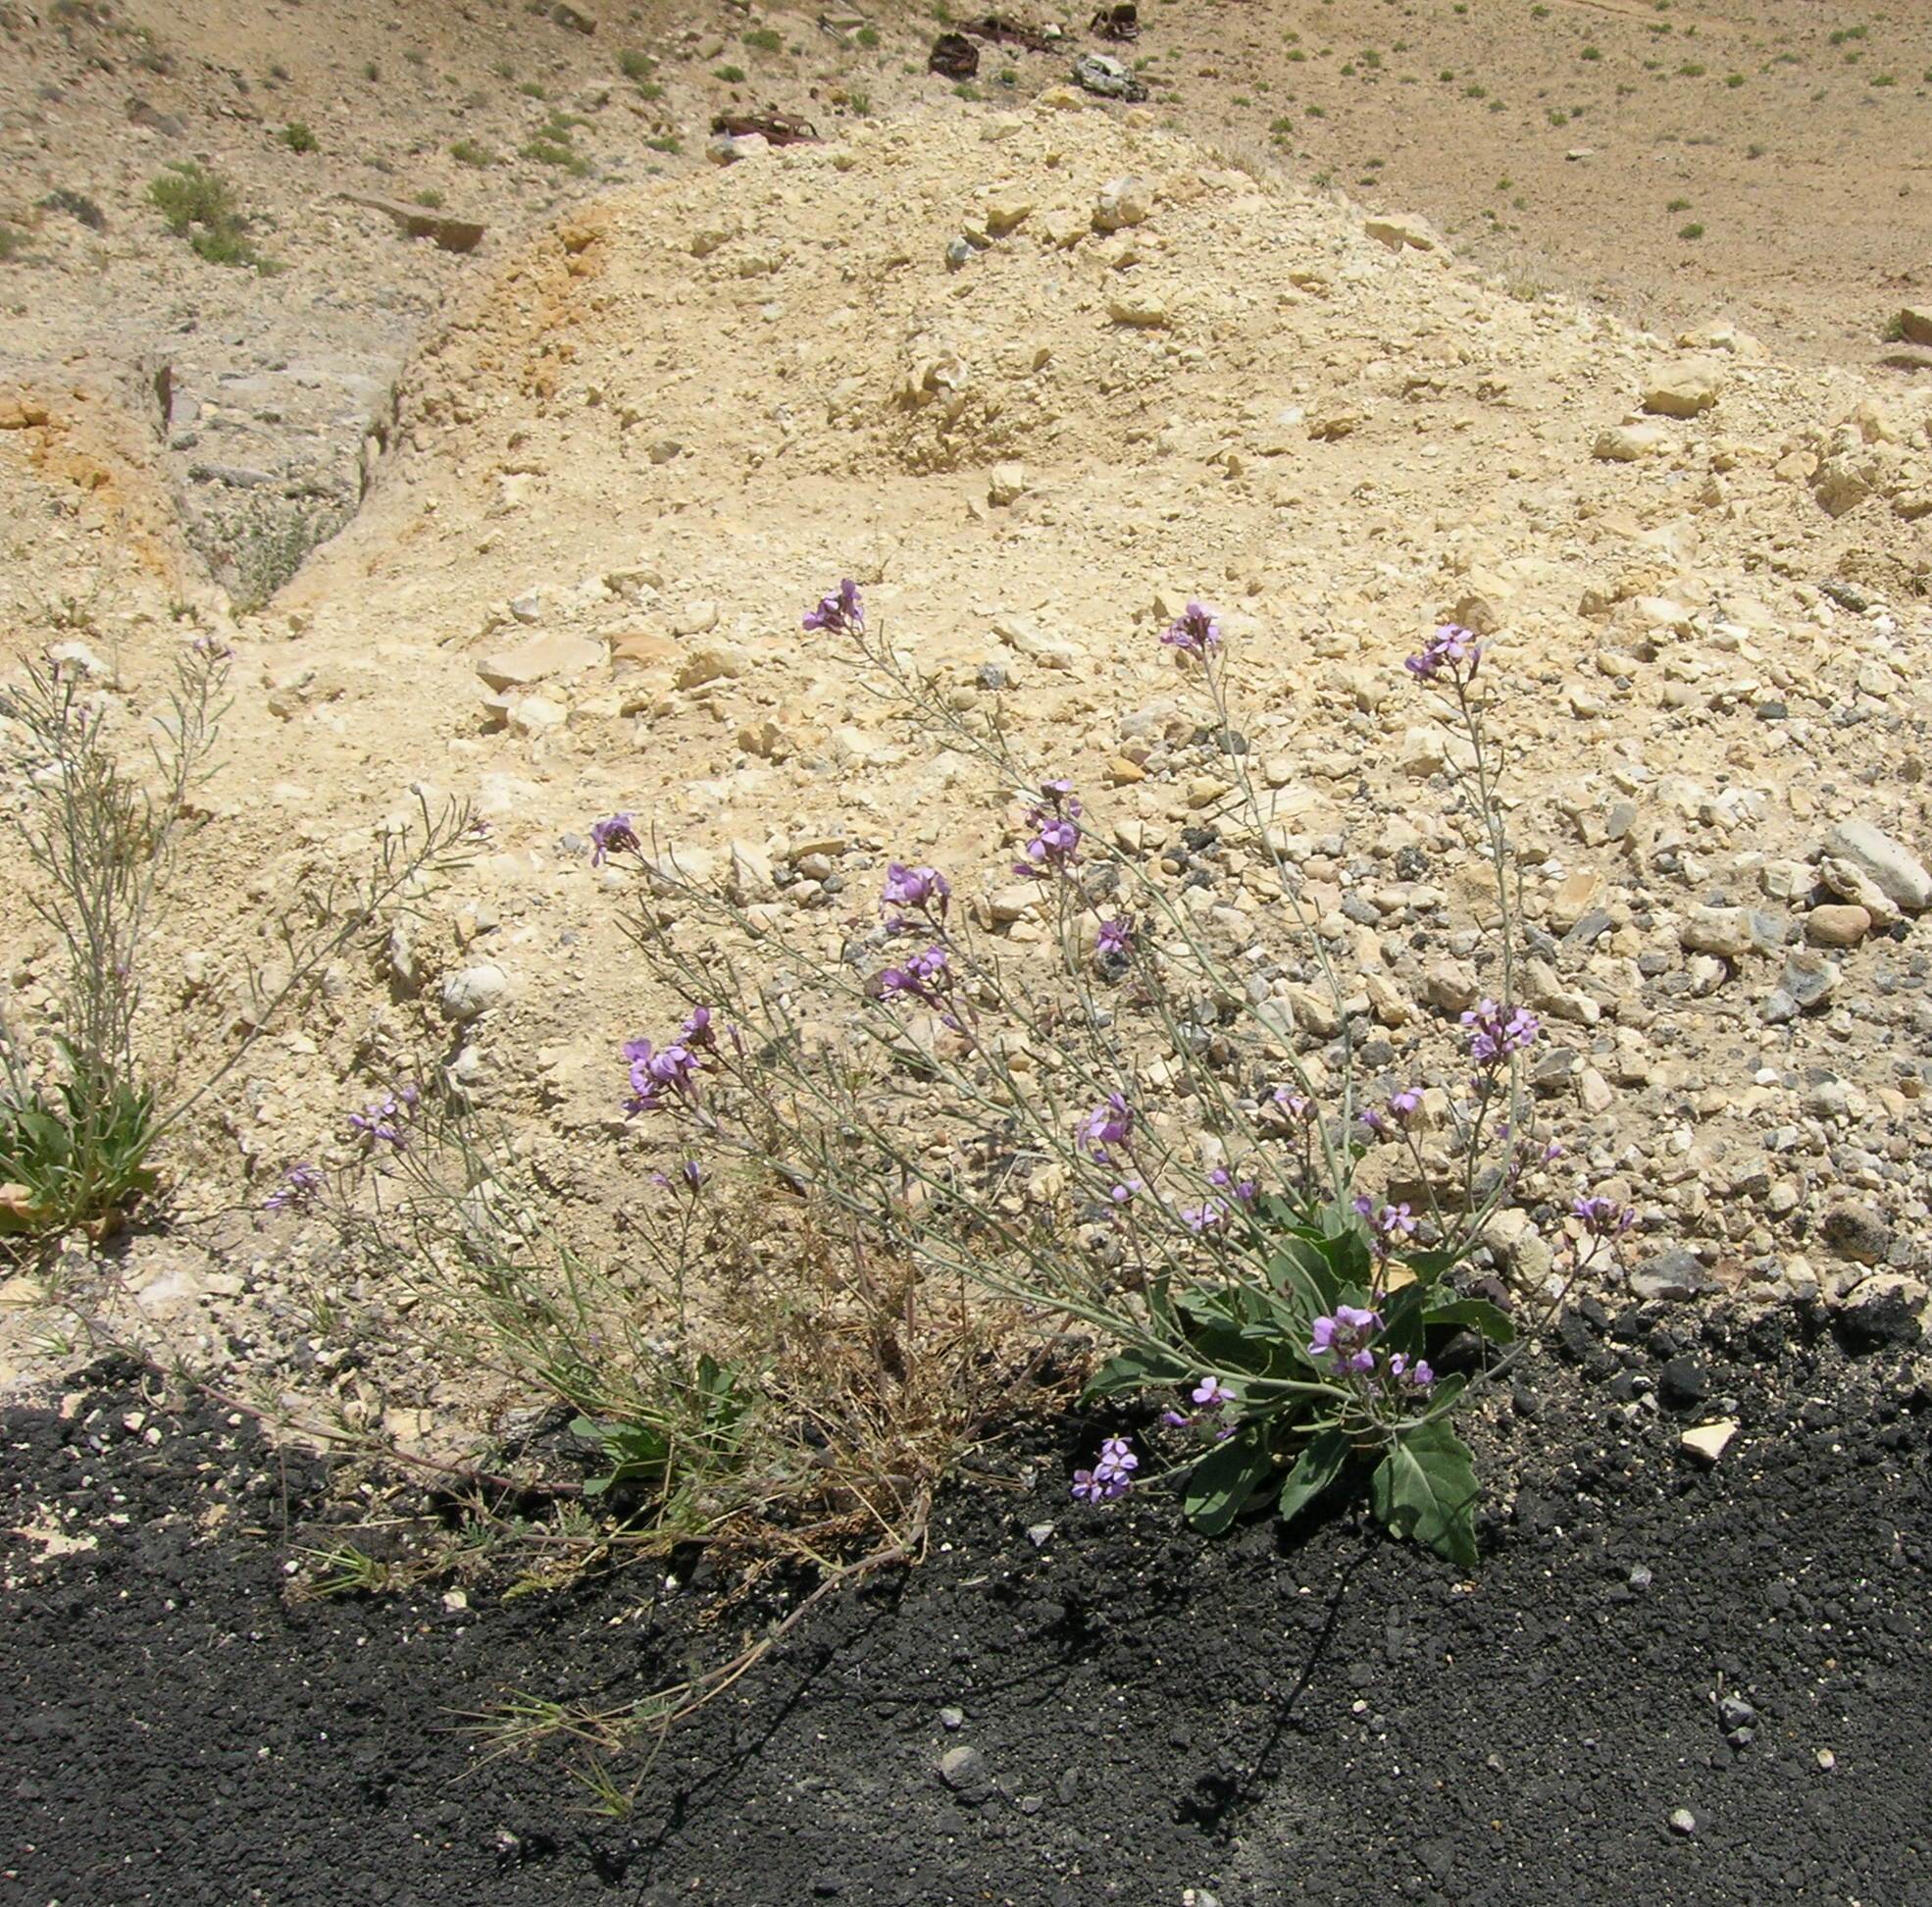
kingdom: Plantae
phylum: Tracheophyta
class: Magnoliopsida
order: Brassicales
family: Brassicaceae
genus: Diplotaxis
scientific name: Diplotaxis acris
